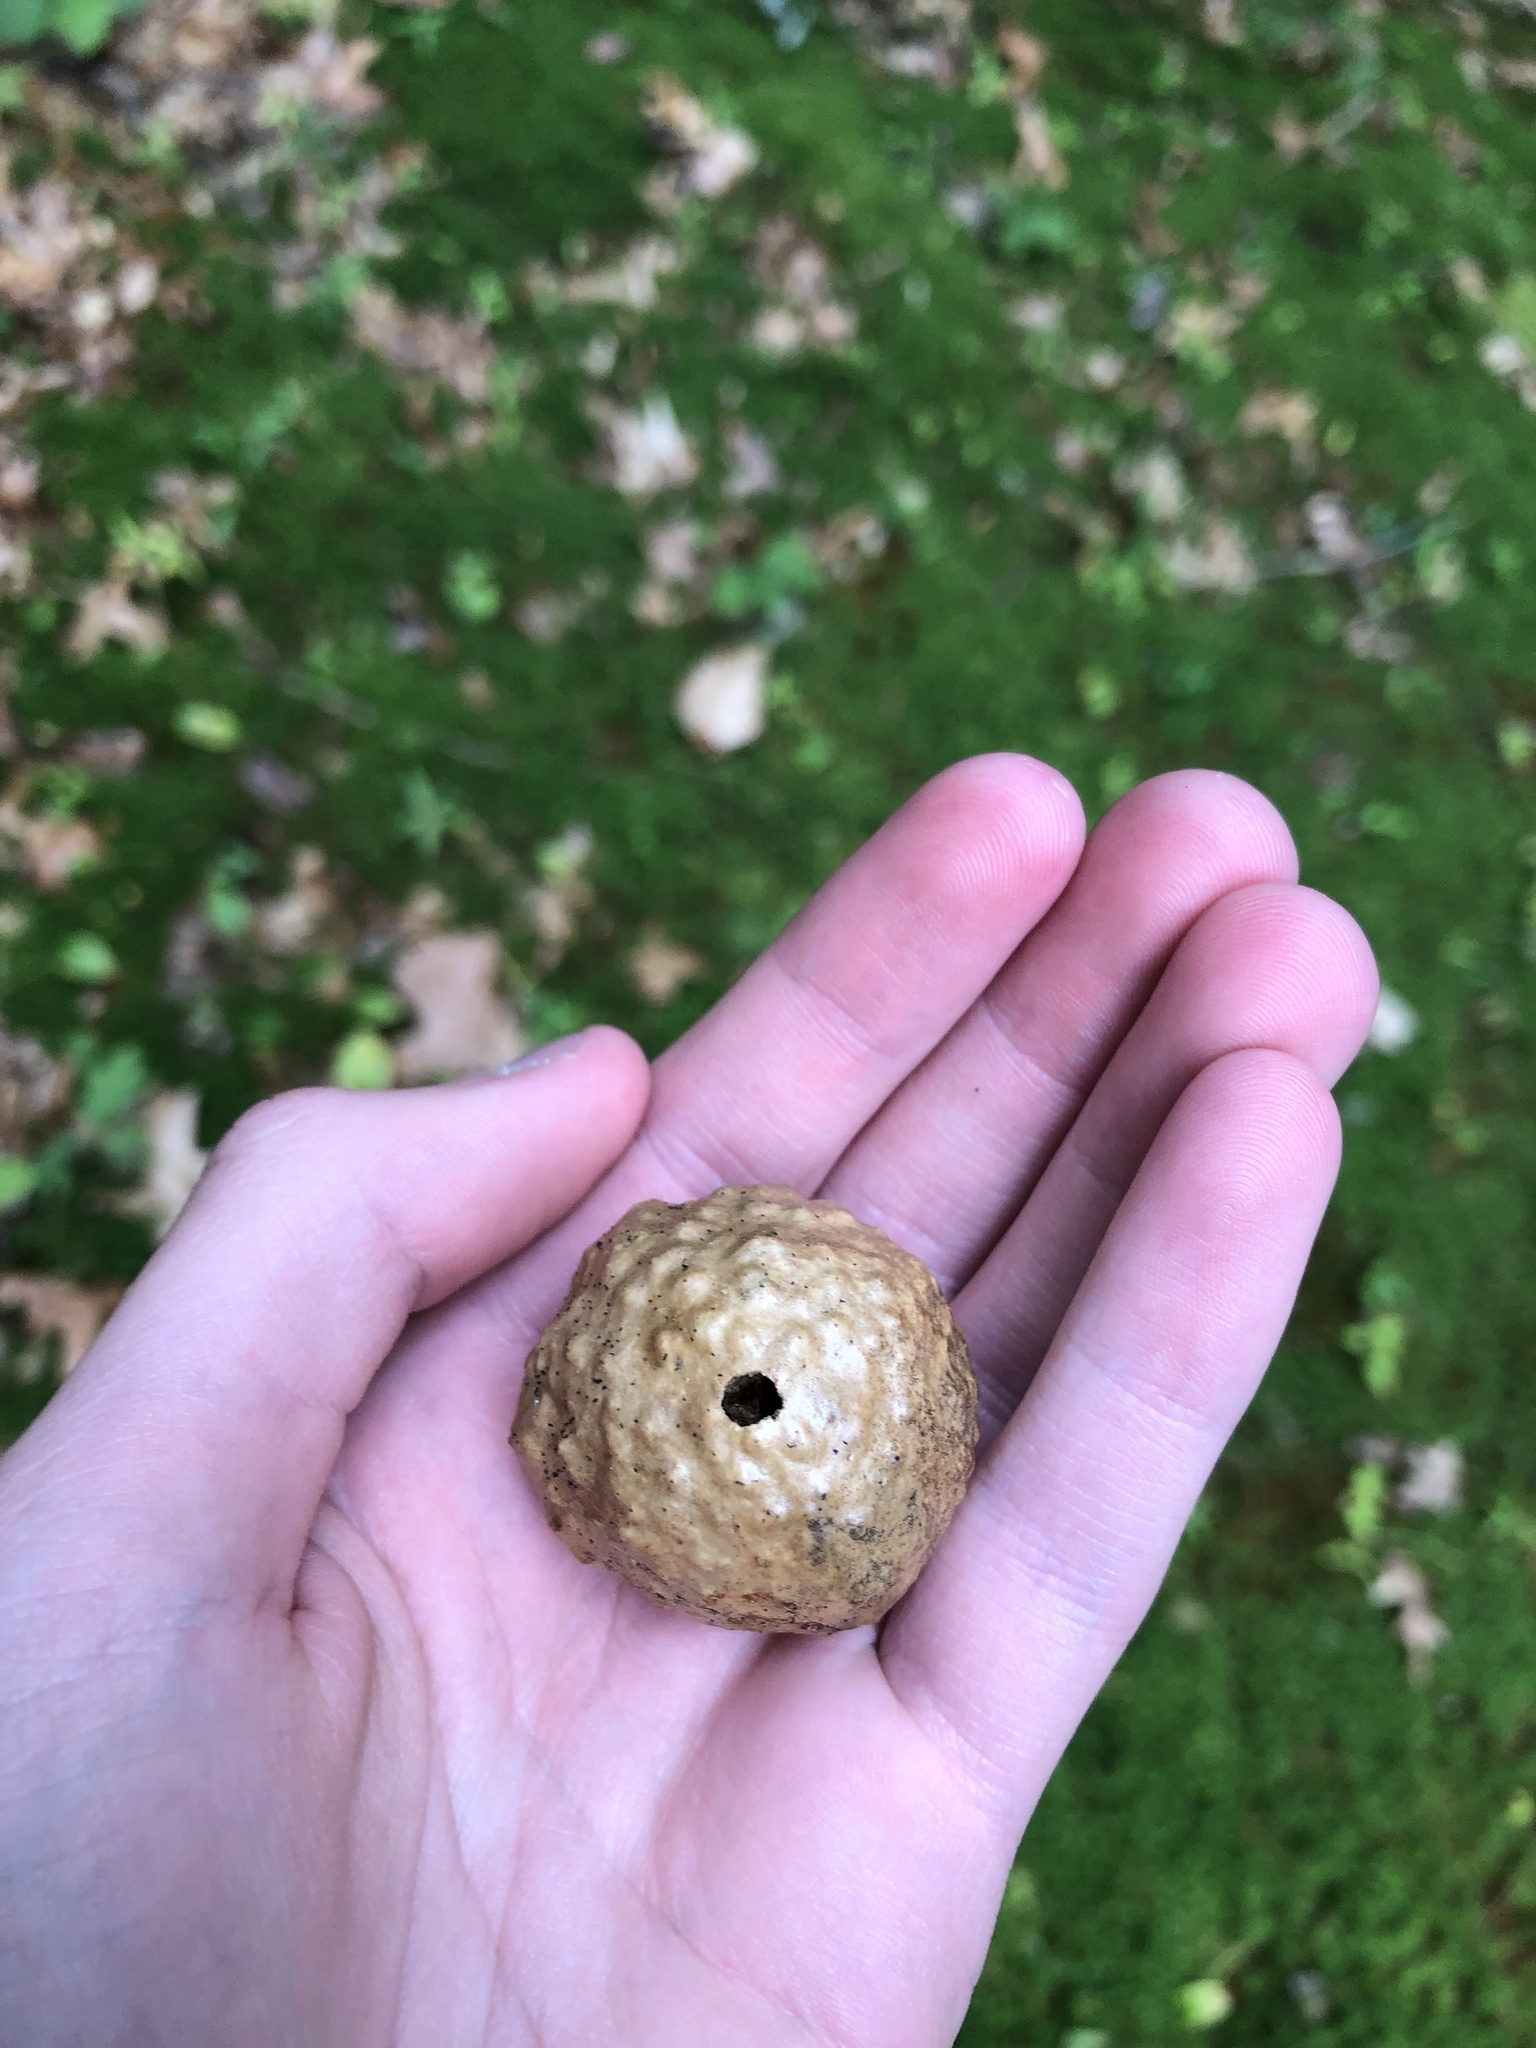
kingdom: Animalia
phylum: Arthropoda
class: Insecta
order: Hymenoptera
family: Cynipidae
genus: Amphibolips
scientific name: Amphibolips
